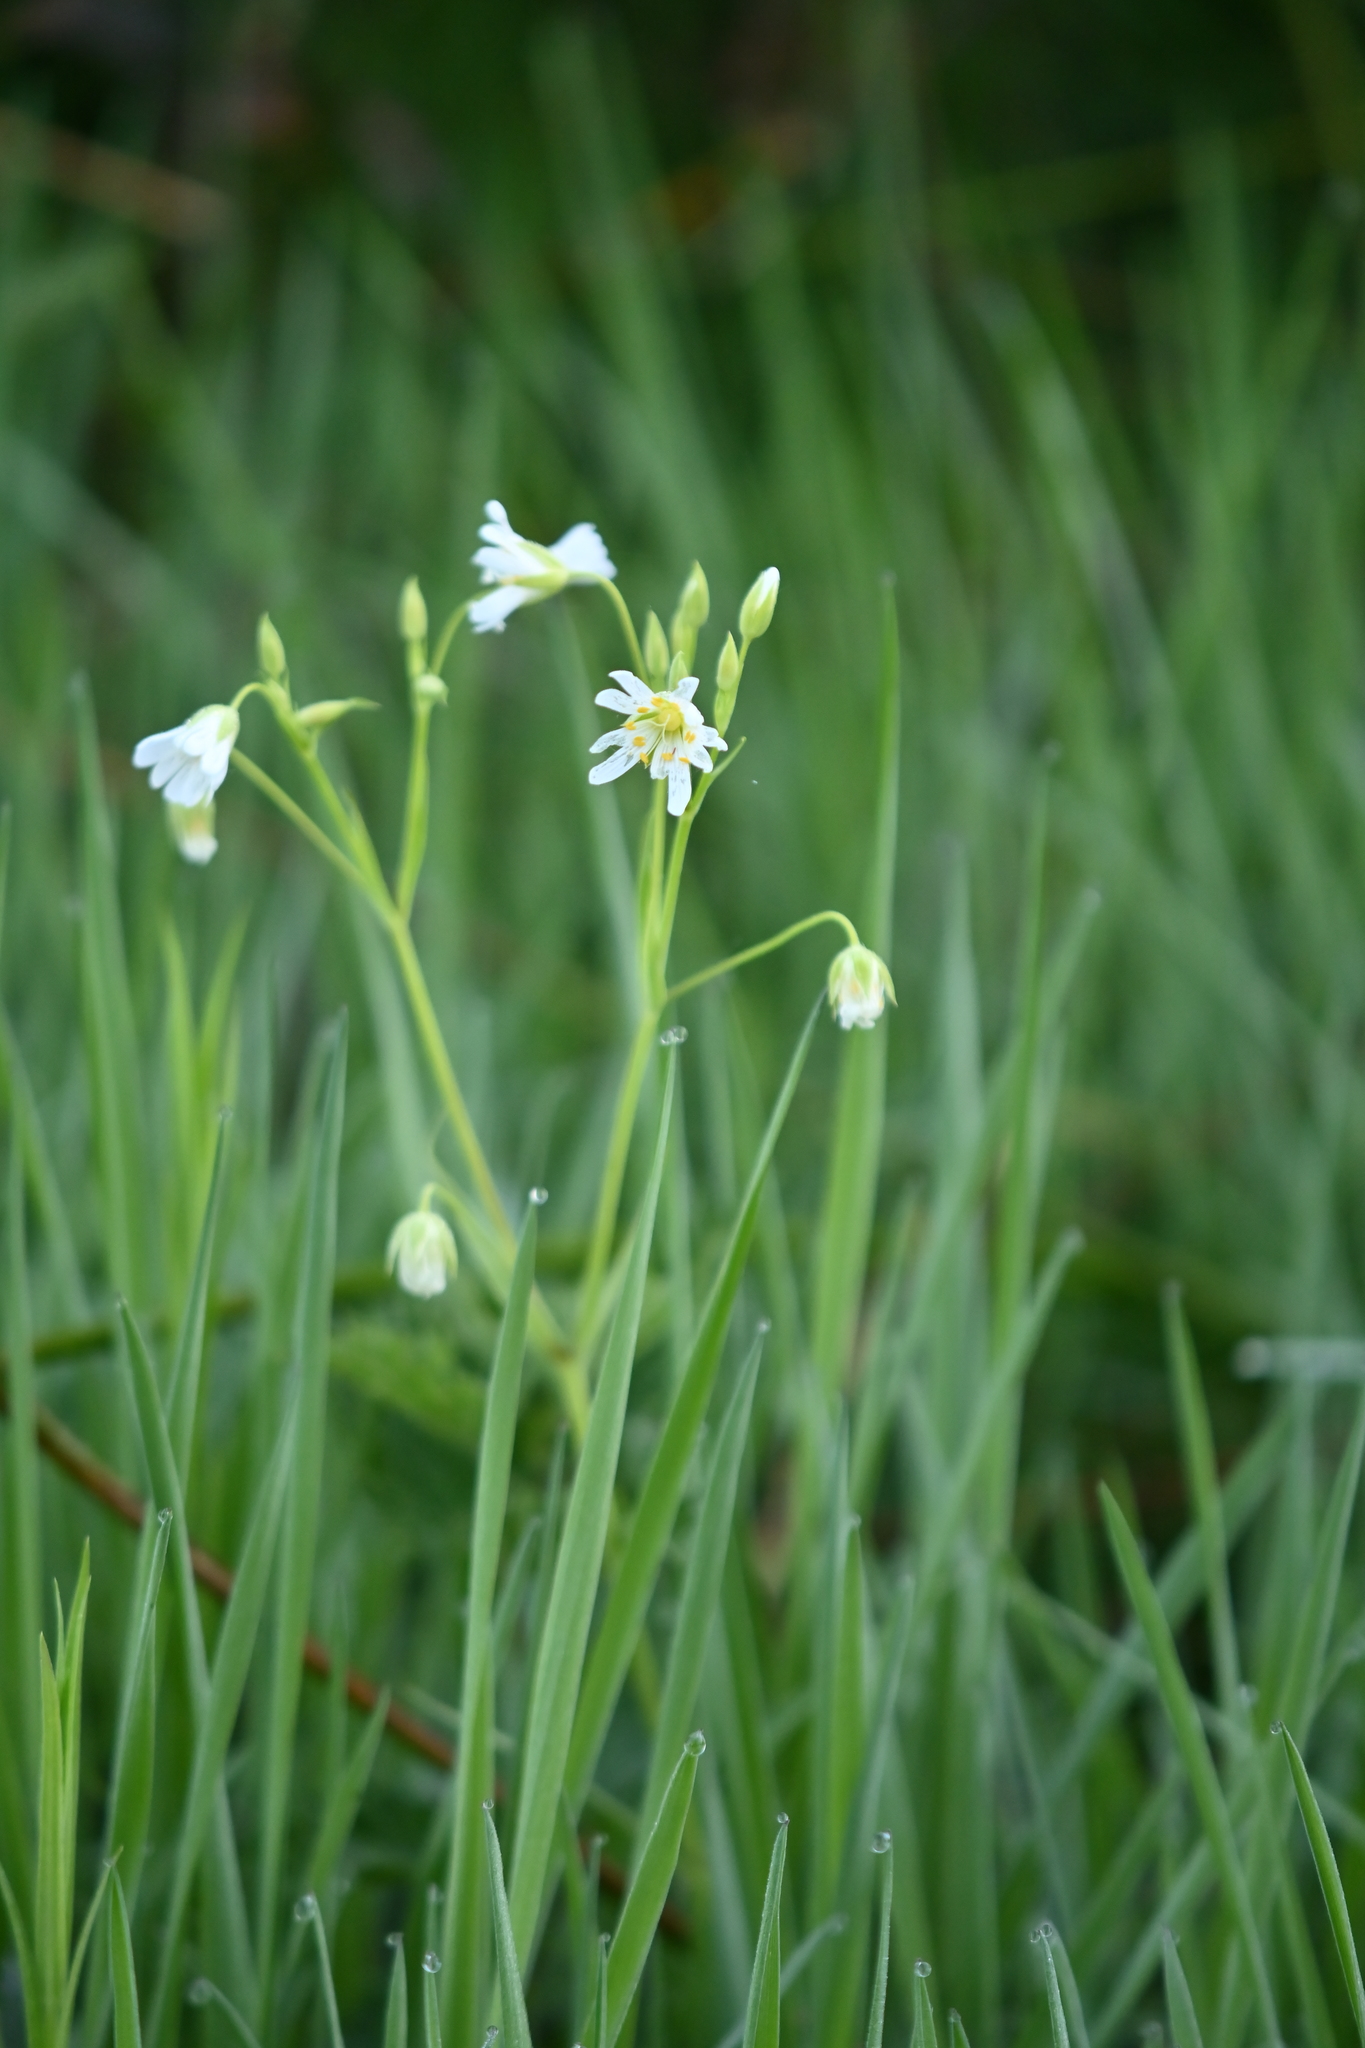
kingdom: Plantae
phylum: Tracheophyta
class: Magnoliopsida
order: Caryophyllales
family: Caryophyllaceae
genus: Rabelera
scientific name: Rabelera holostea
